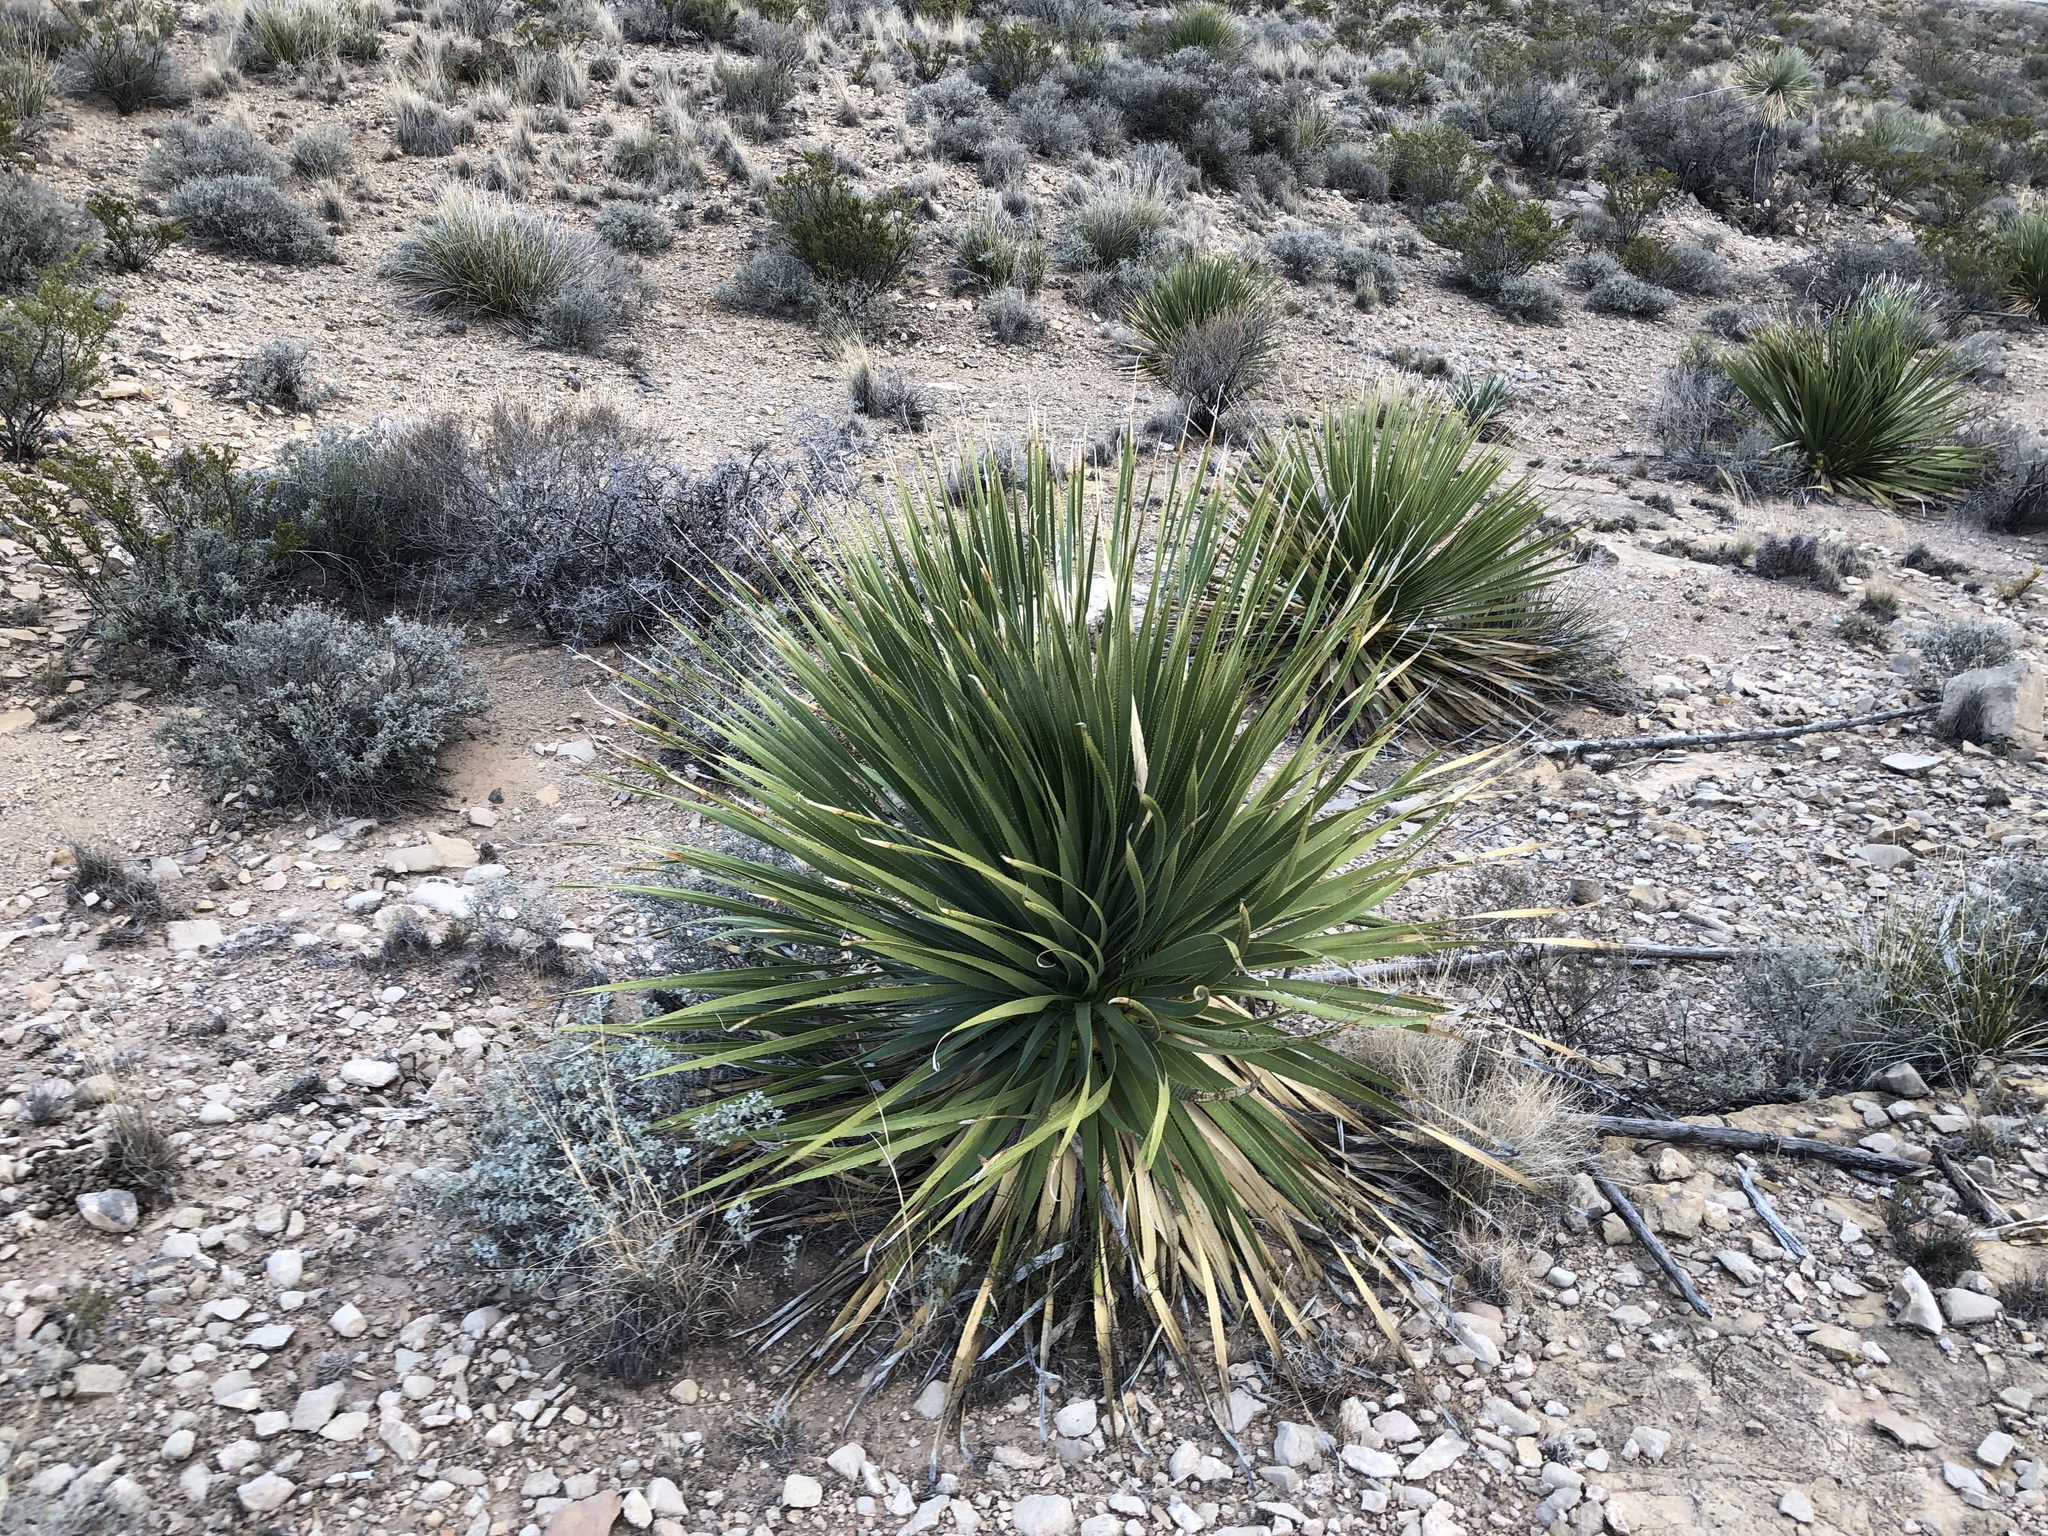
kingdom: Plantae
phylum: Tracheophyta
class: Liliopsida
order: Asparagales
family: Asparagaceae
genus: Dasylirion
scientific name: Dasylirion wheeleri
